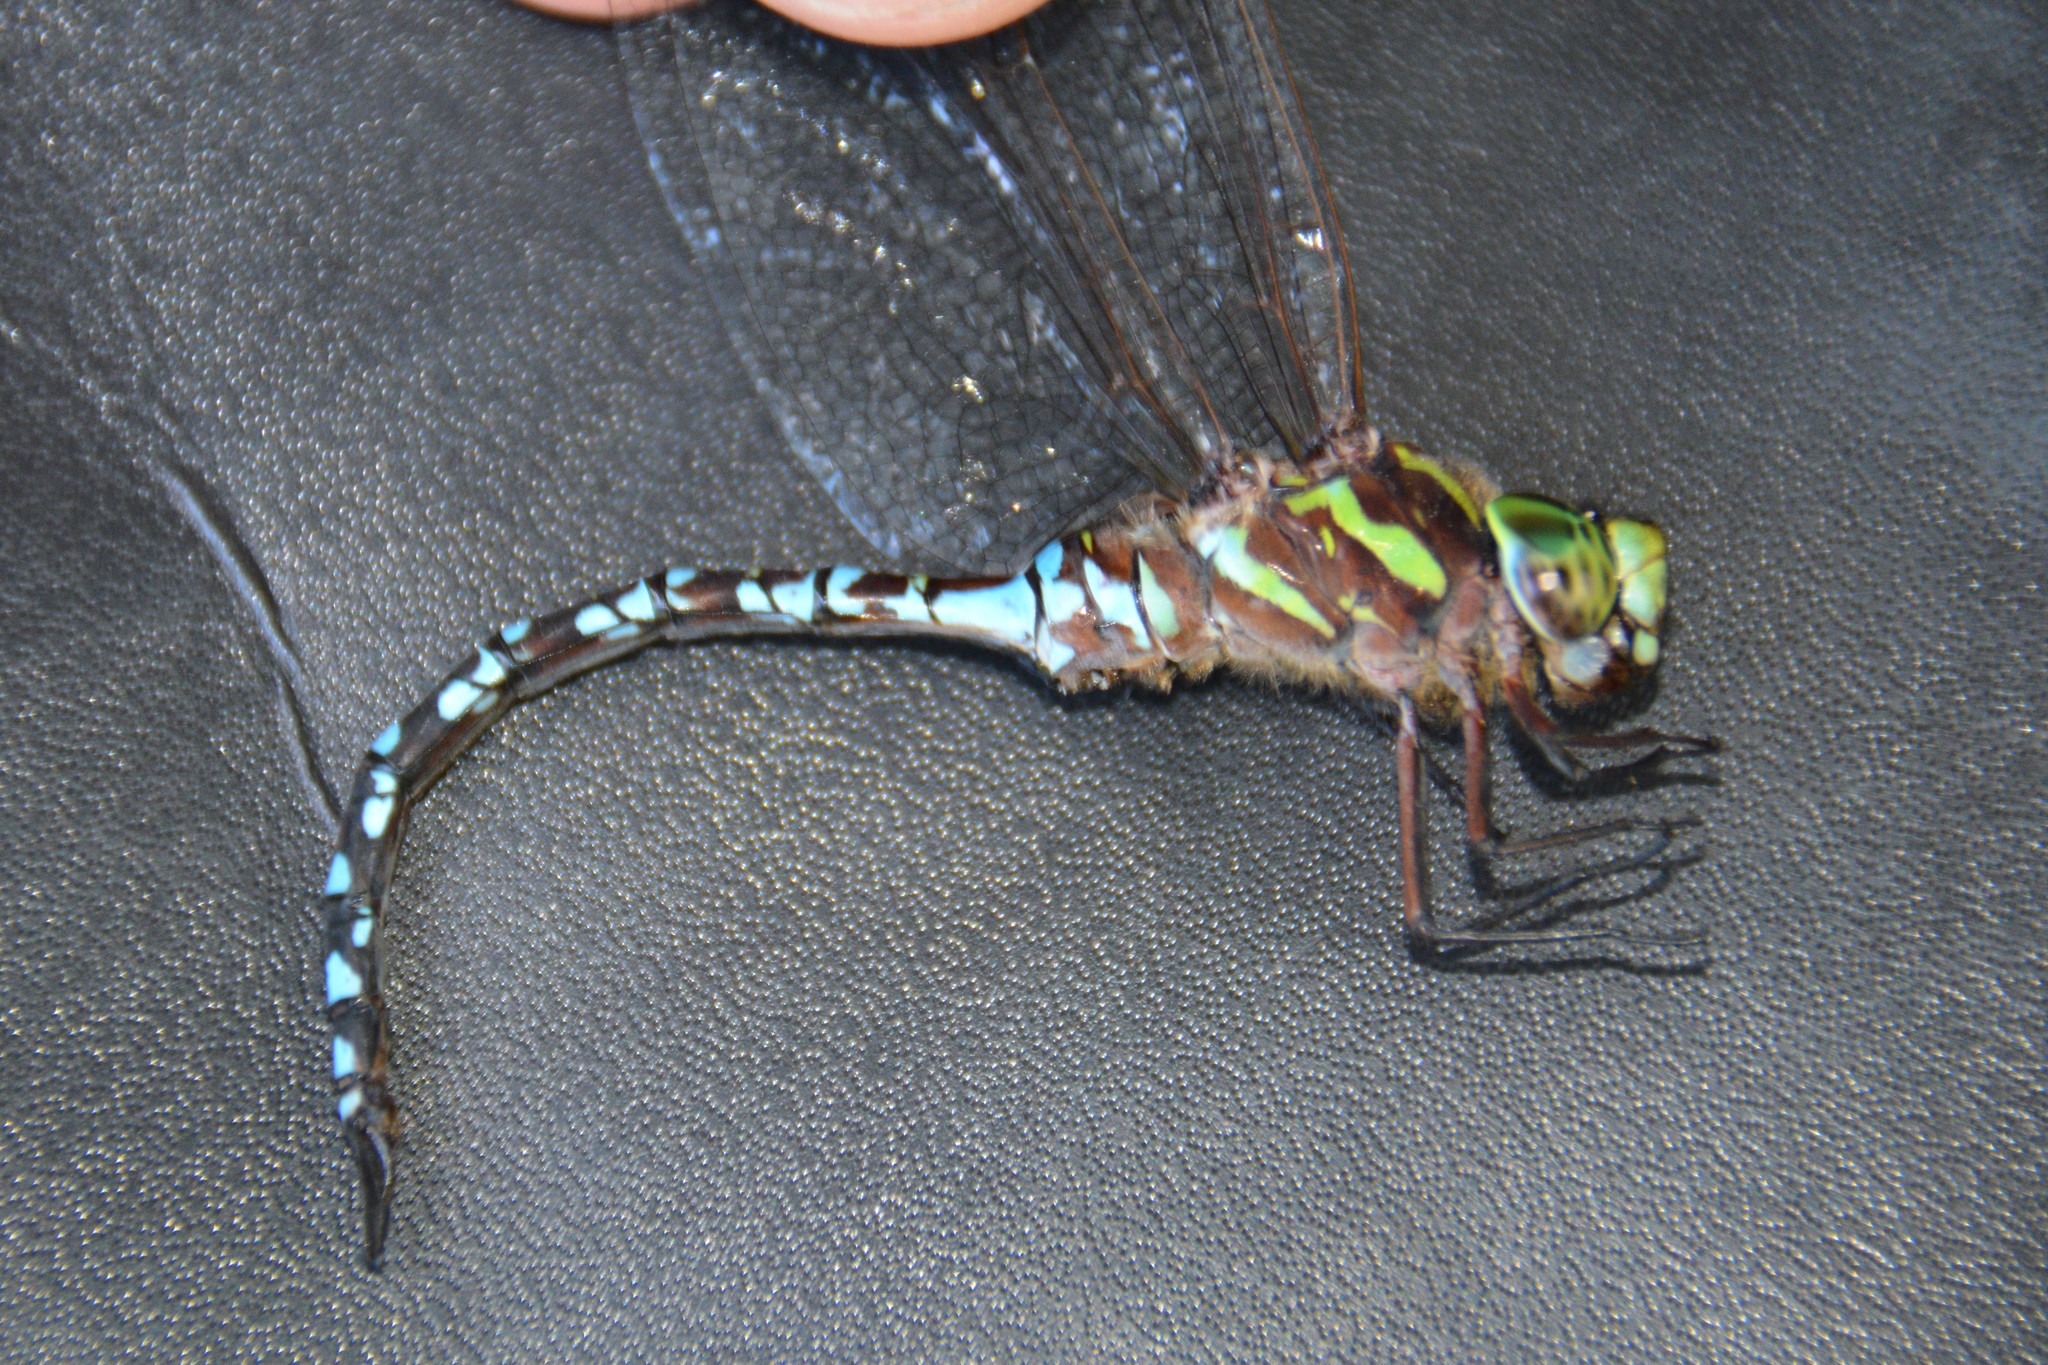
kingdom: Animalia
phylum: Arthropoda
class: Insecta
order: Odonata
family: Aeshnidae
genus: Aeshna
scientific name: Aeshna verticalis
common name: Green-striped darner
